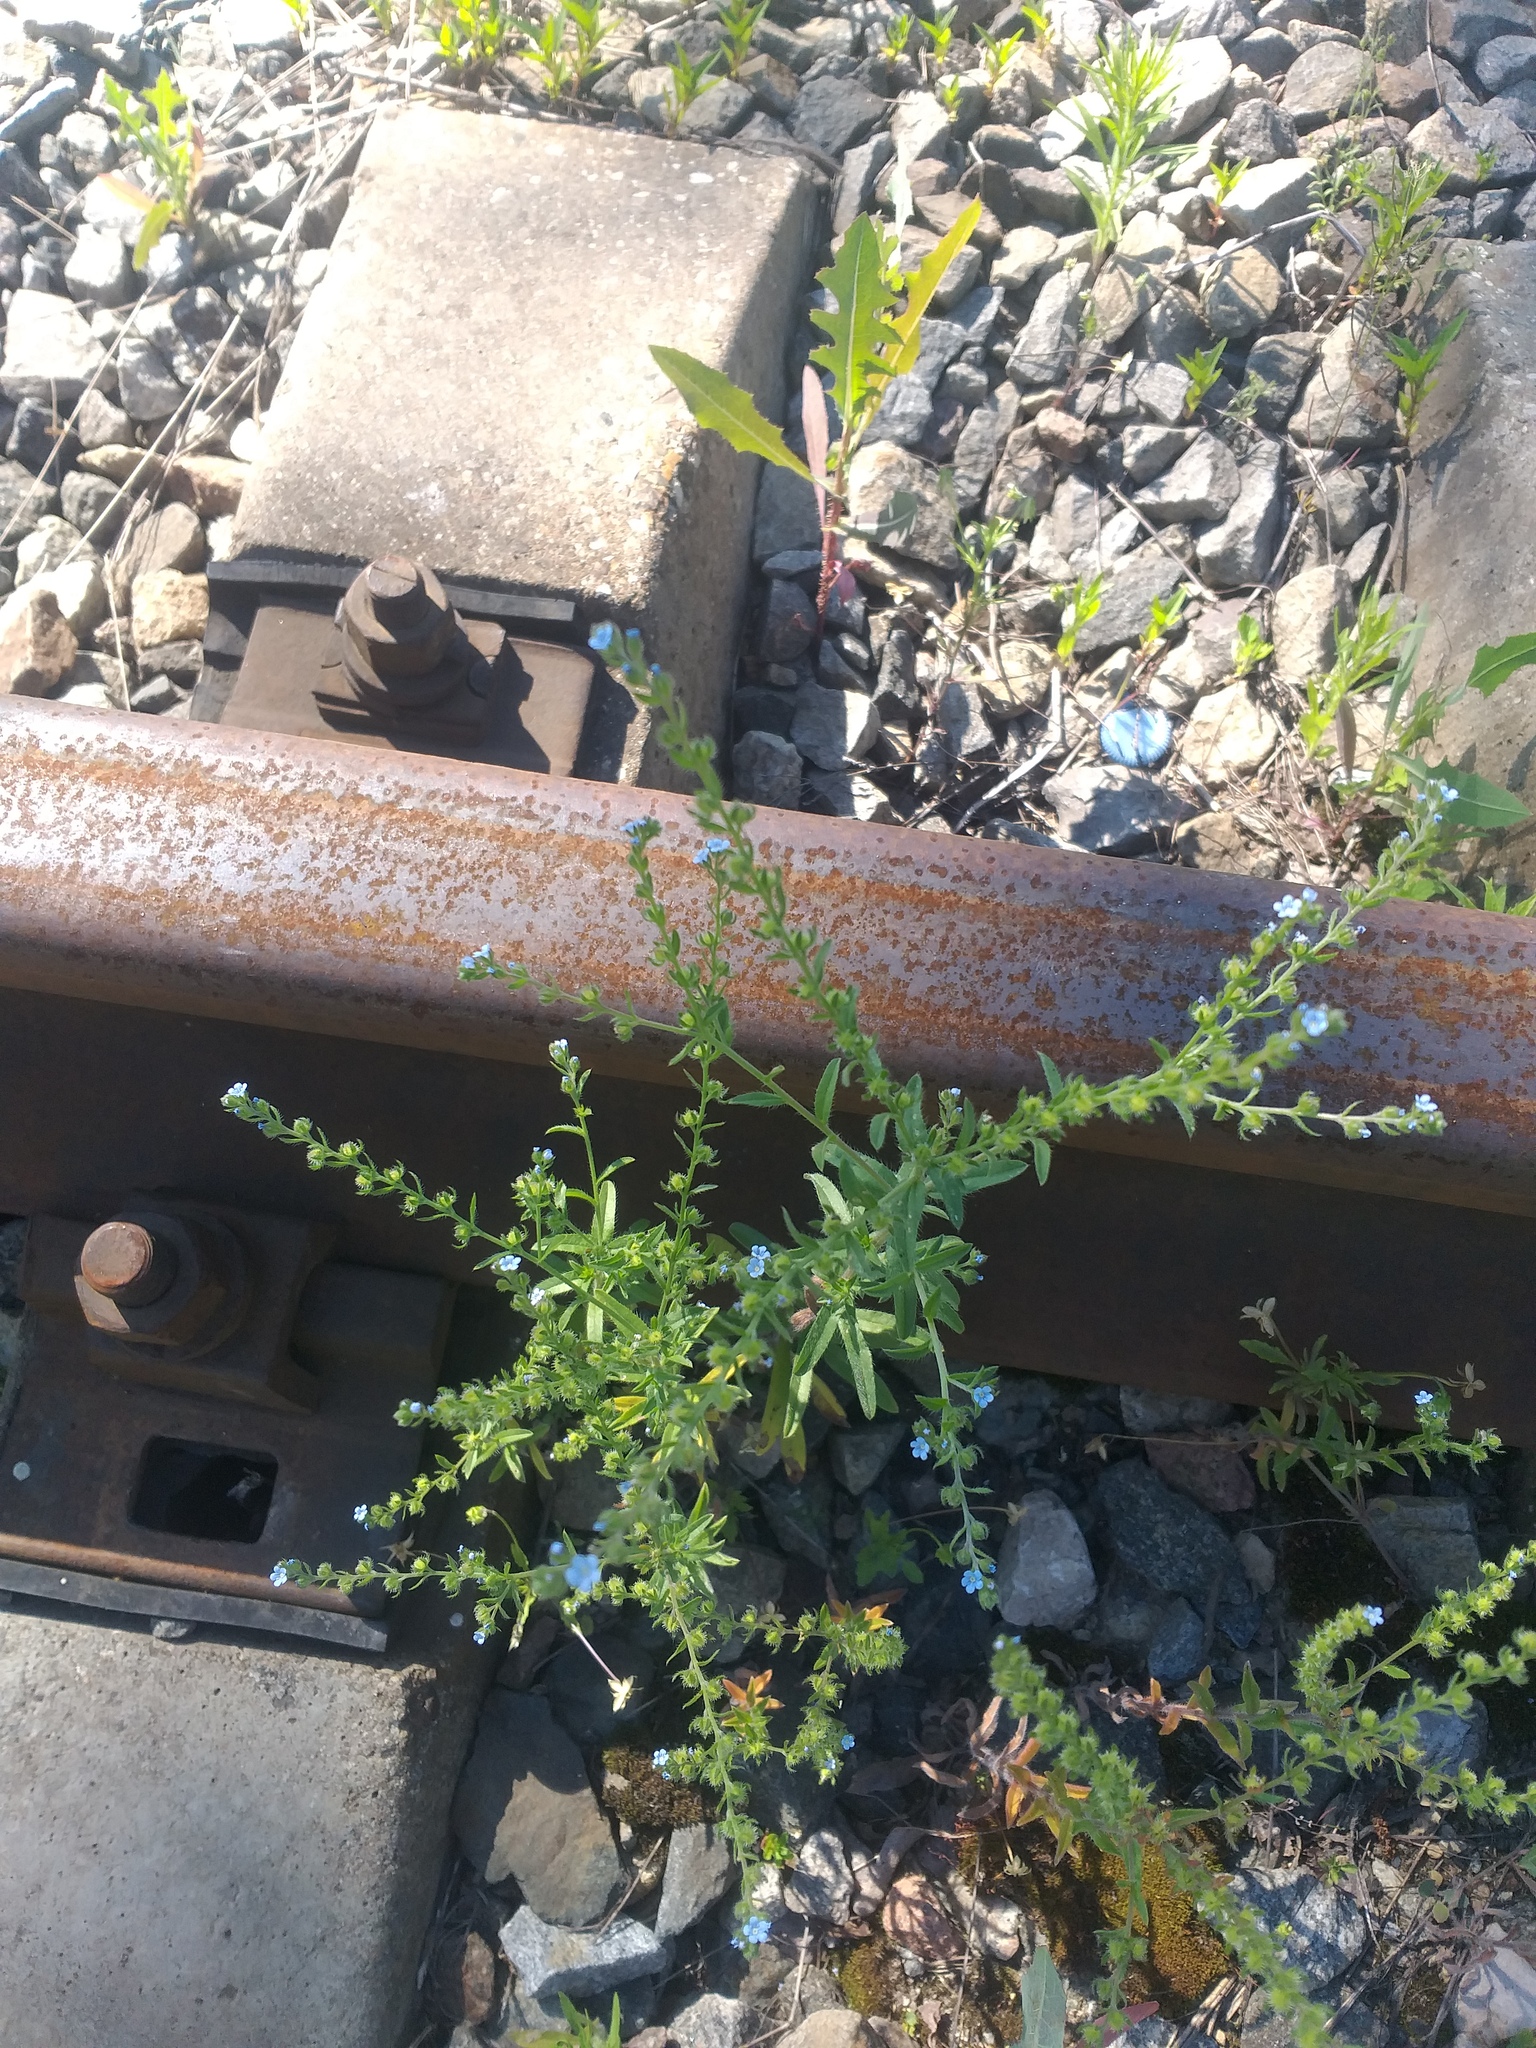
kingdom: Plantae
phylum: Tracheophyta
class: Magnoliopsida
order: Boraginales
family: Boraginaceae
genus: Lappula
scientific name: Lappula squarrosa
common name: European stickseed
